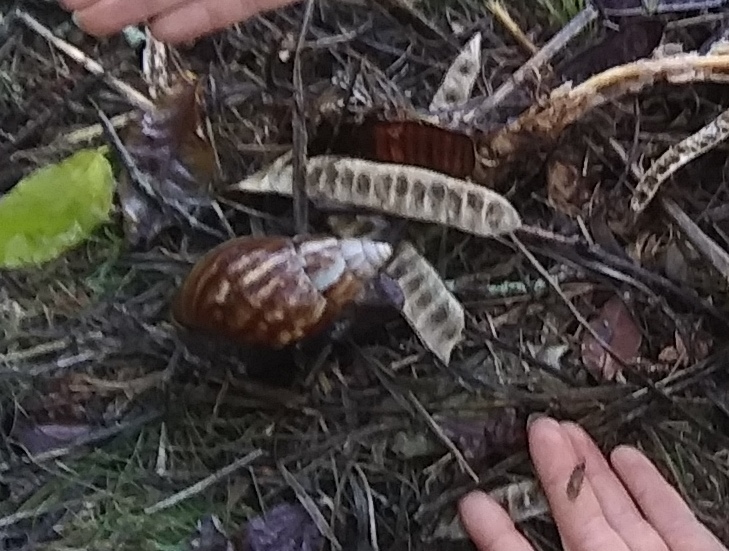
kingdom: Animalia
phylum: Mollusca
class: Gastropoda
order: Stylommatophora
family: Achatinidae
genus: Lissachatina
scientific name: Lissachatina fulica
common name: Giant african snail
